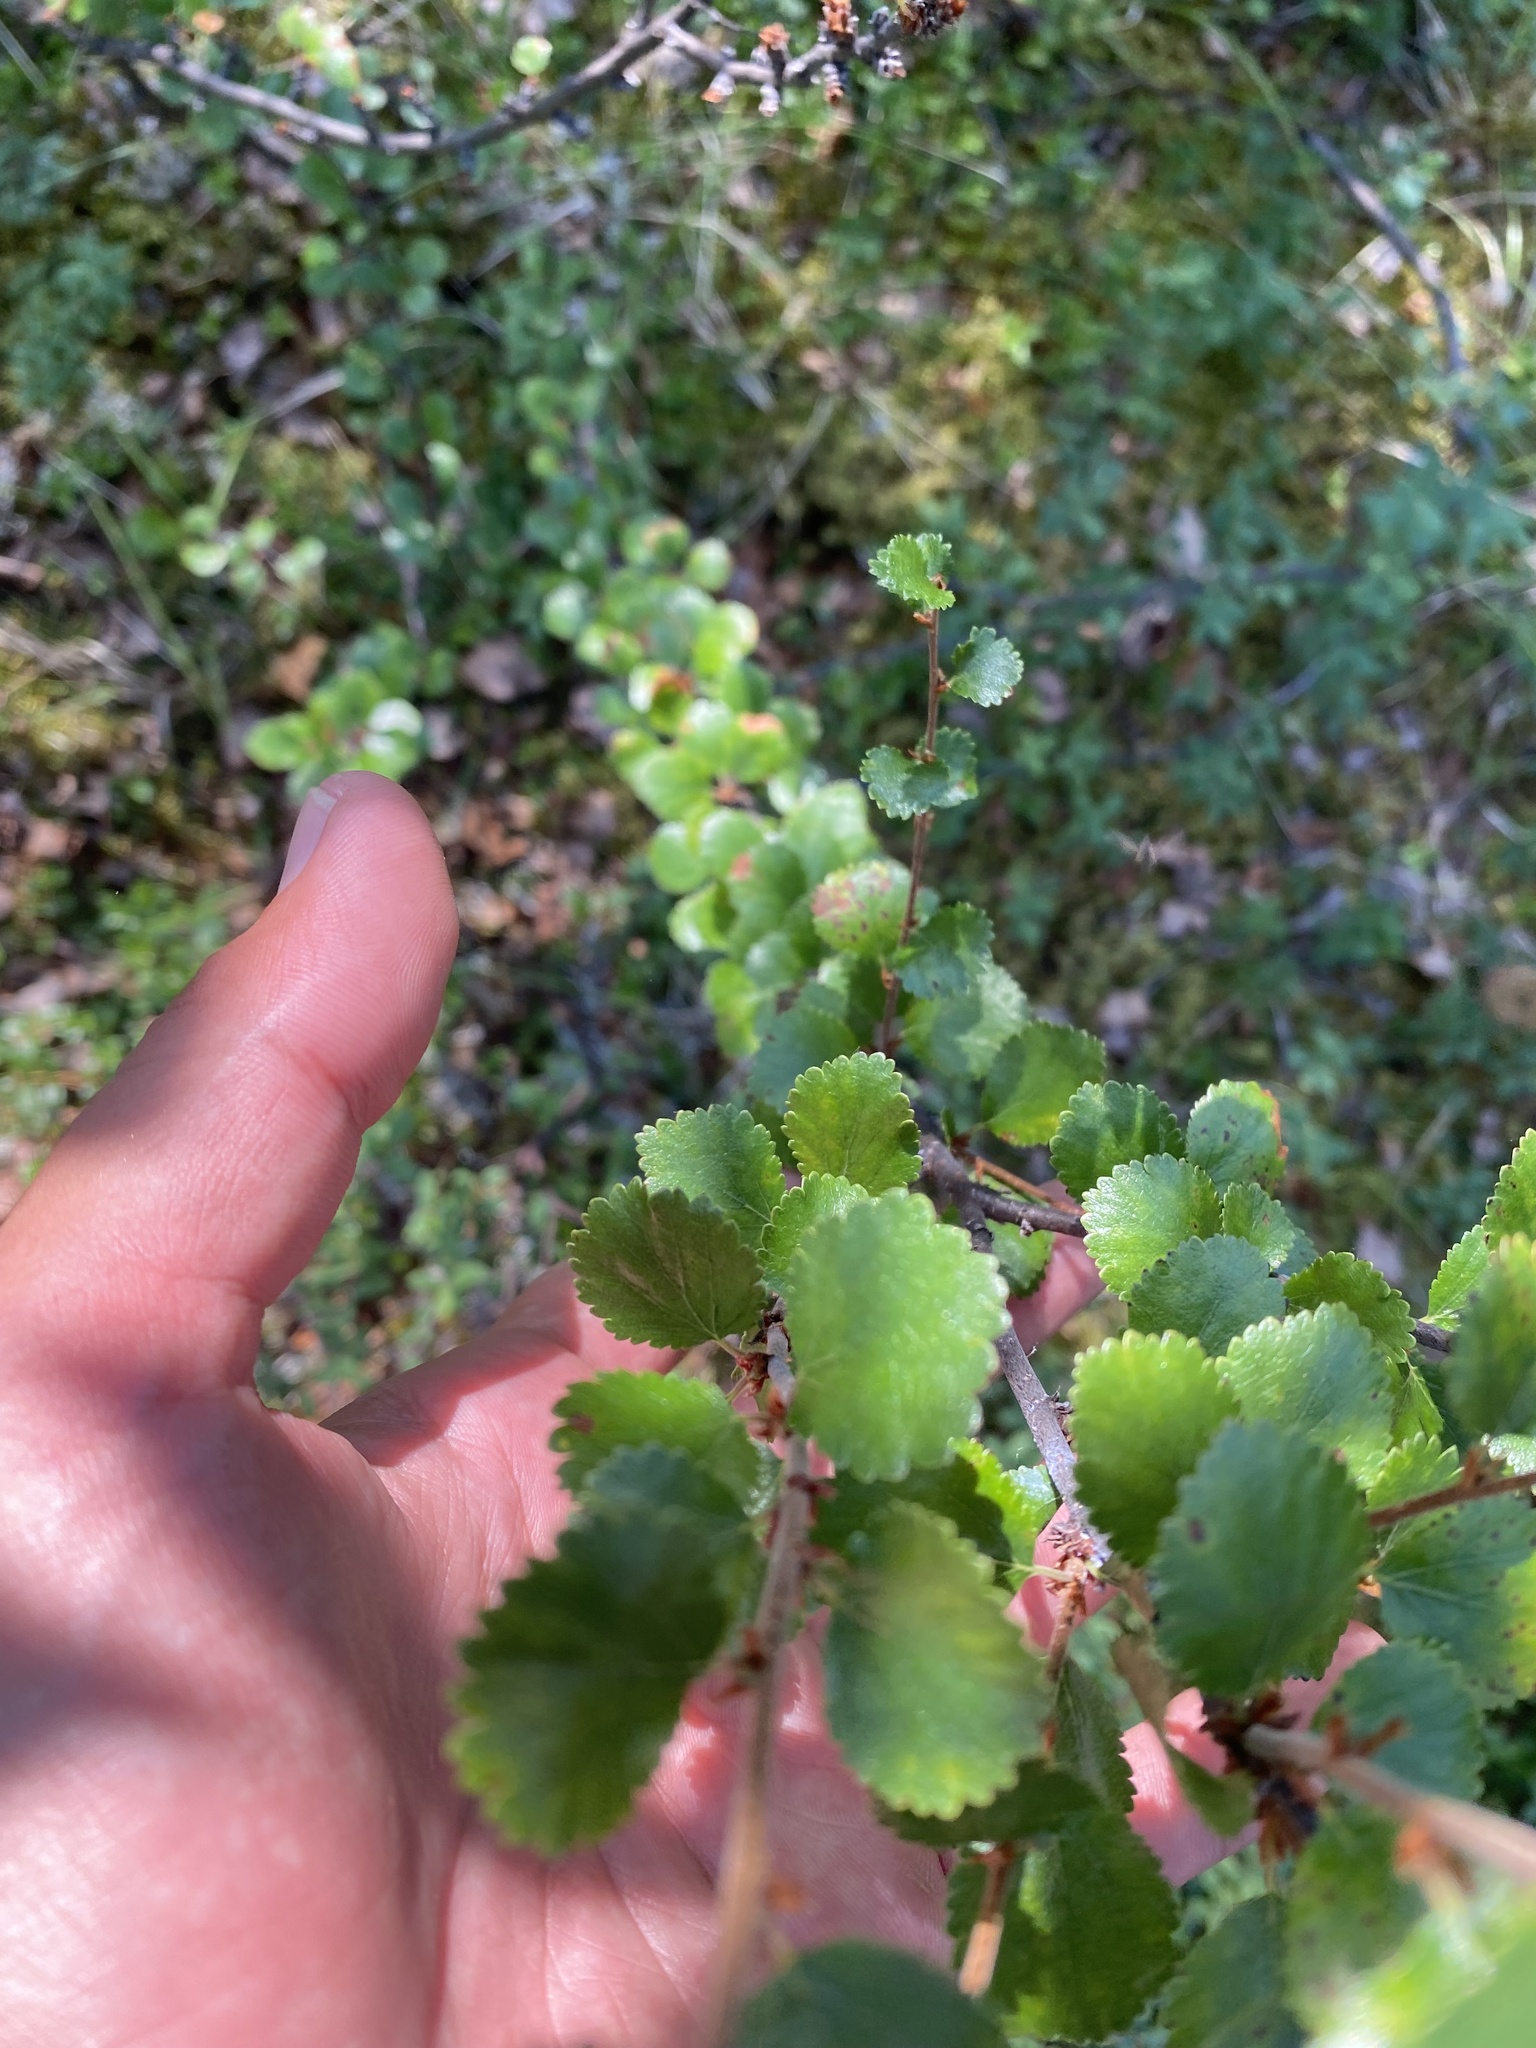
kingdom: Plantae
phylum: Tracheophyta
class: Magnoliopsida
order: Fagales
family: Betulaceae
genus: Betula
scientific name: Betula nana
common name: Arctic dwarf birch
